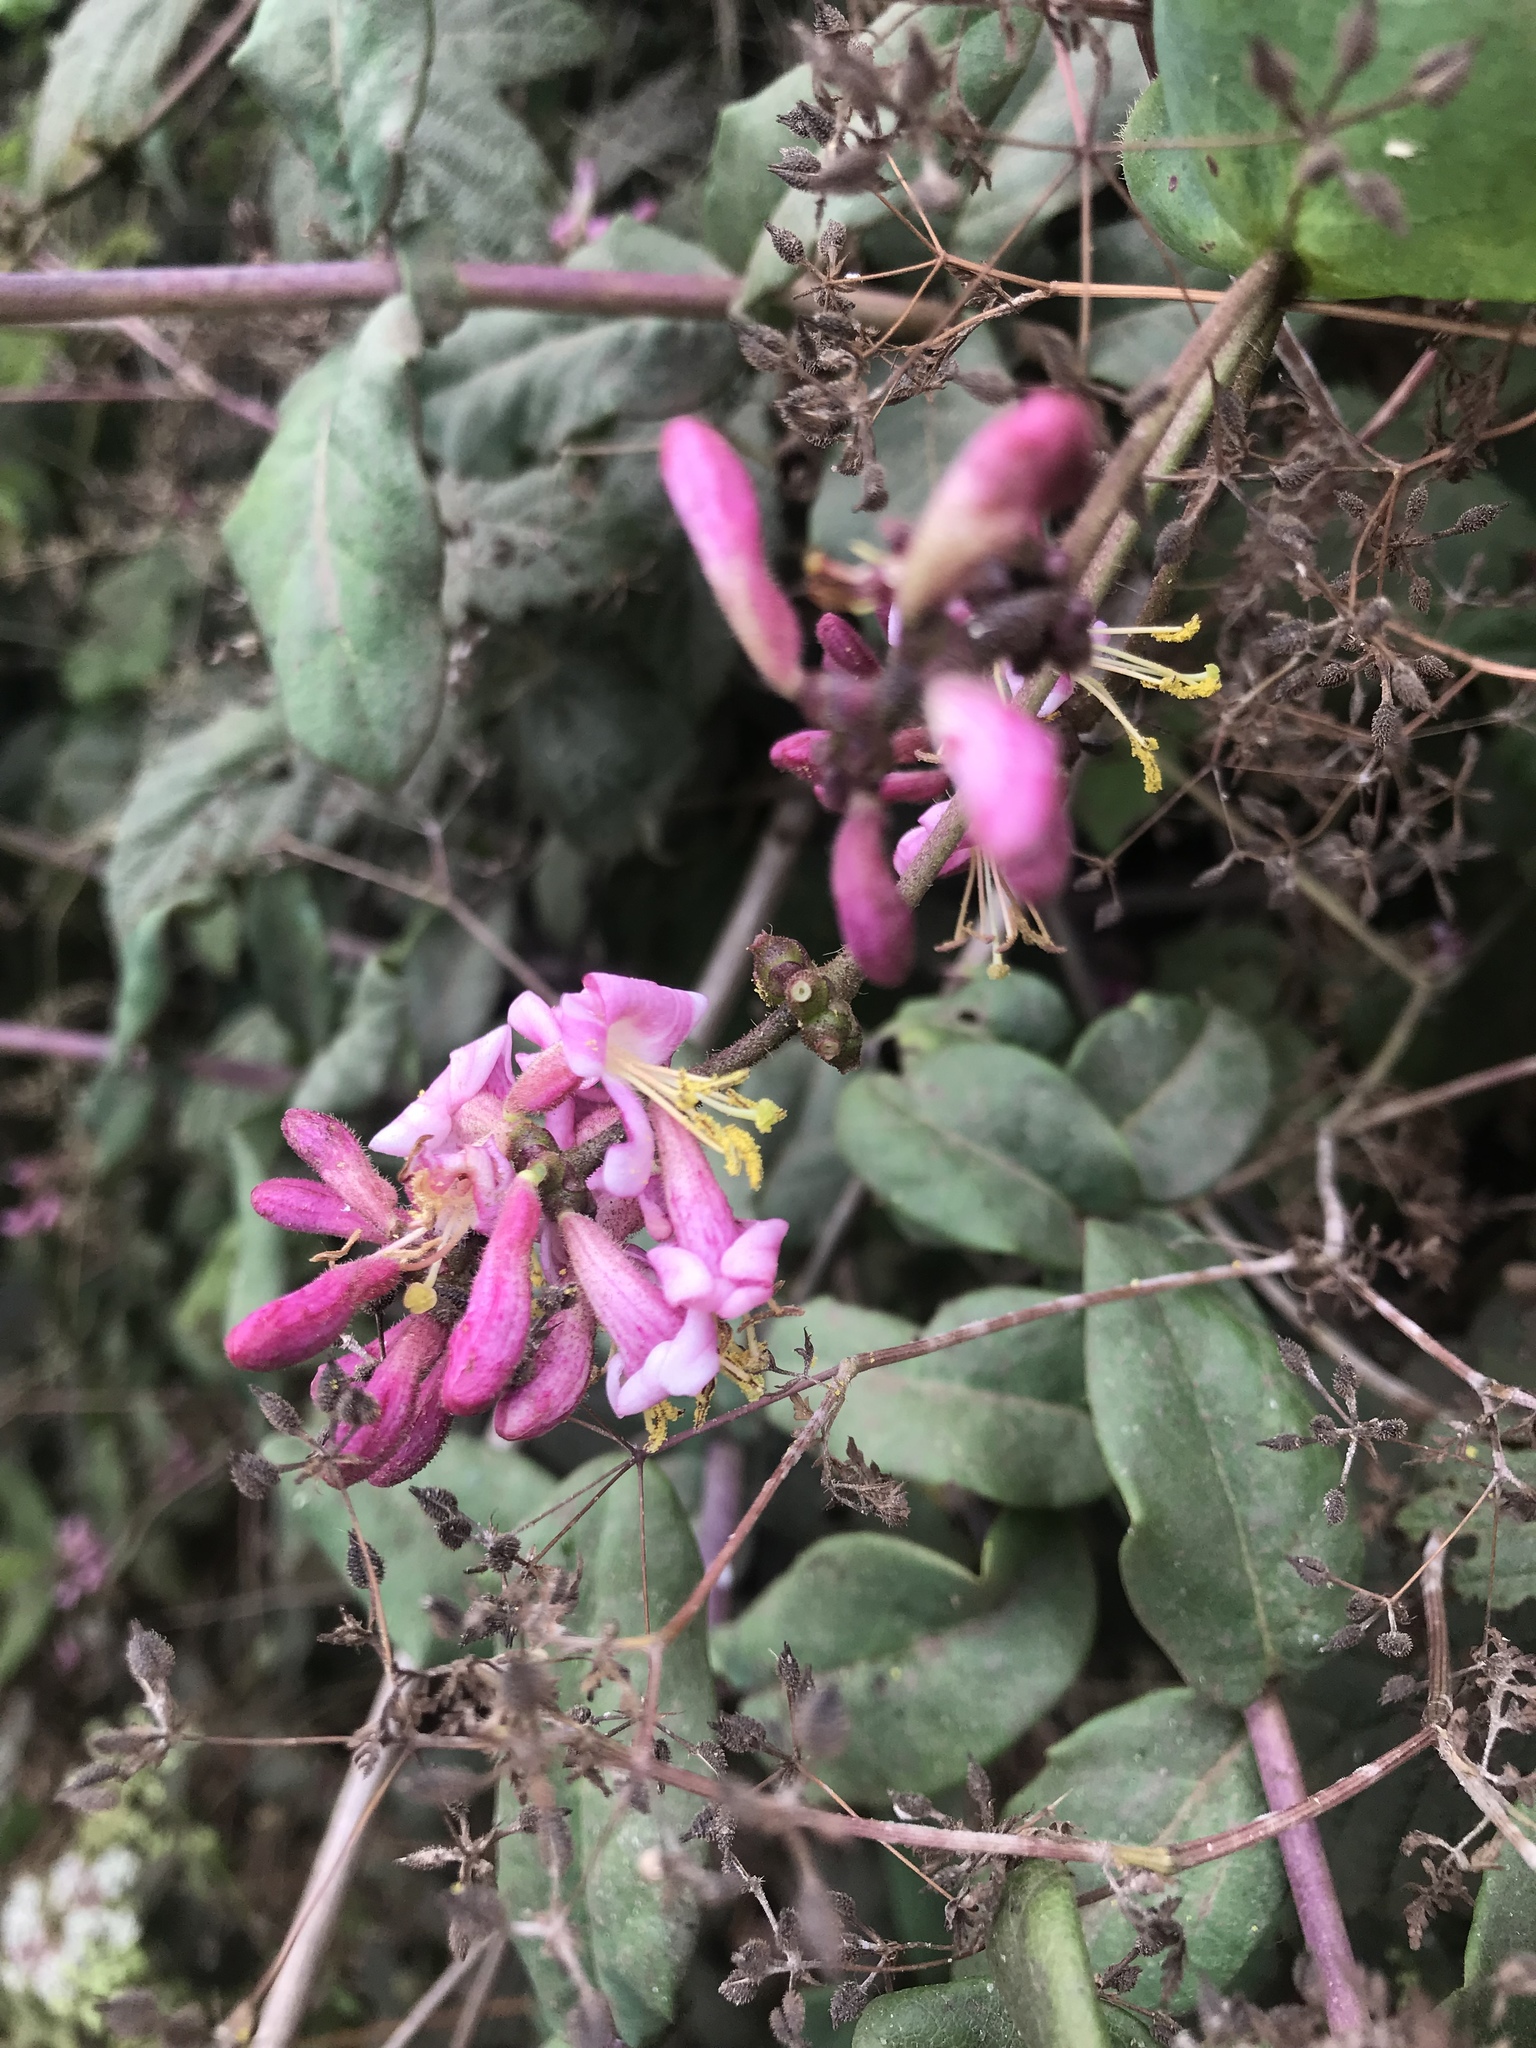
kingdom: Plantae
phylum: Tracheophyta
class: Magnoliopsida
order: Dipsacales
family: Caprifoliaceae
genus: Lonicera
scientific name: Lonicera hispidula
